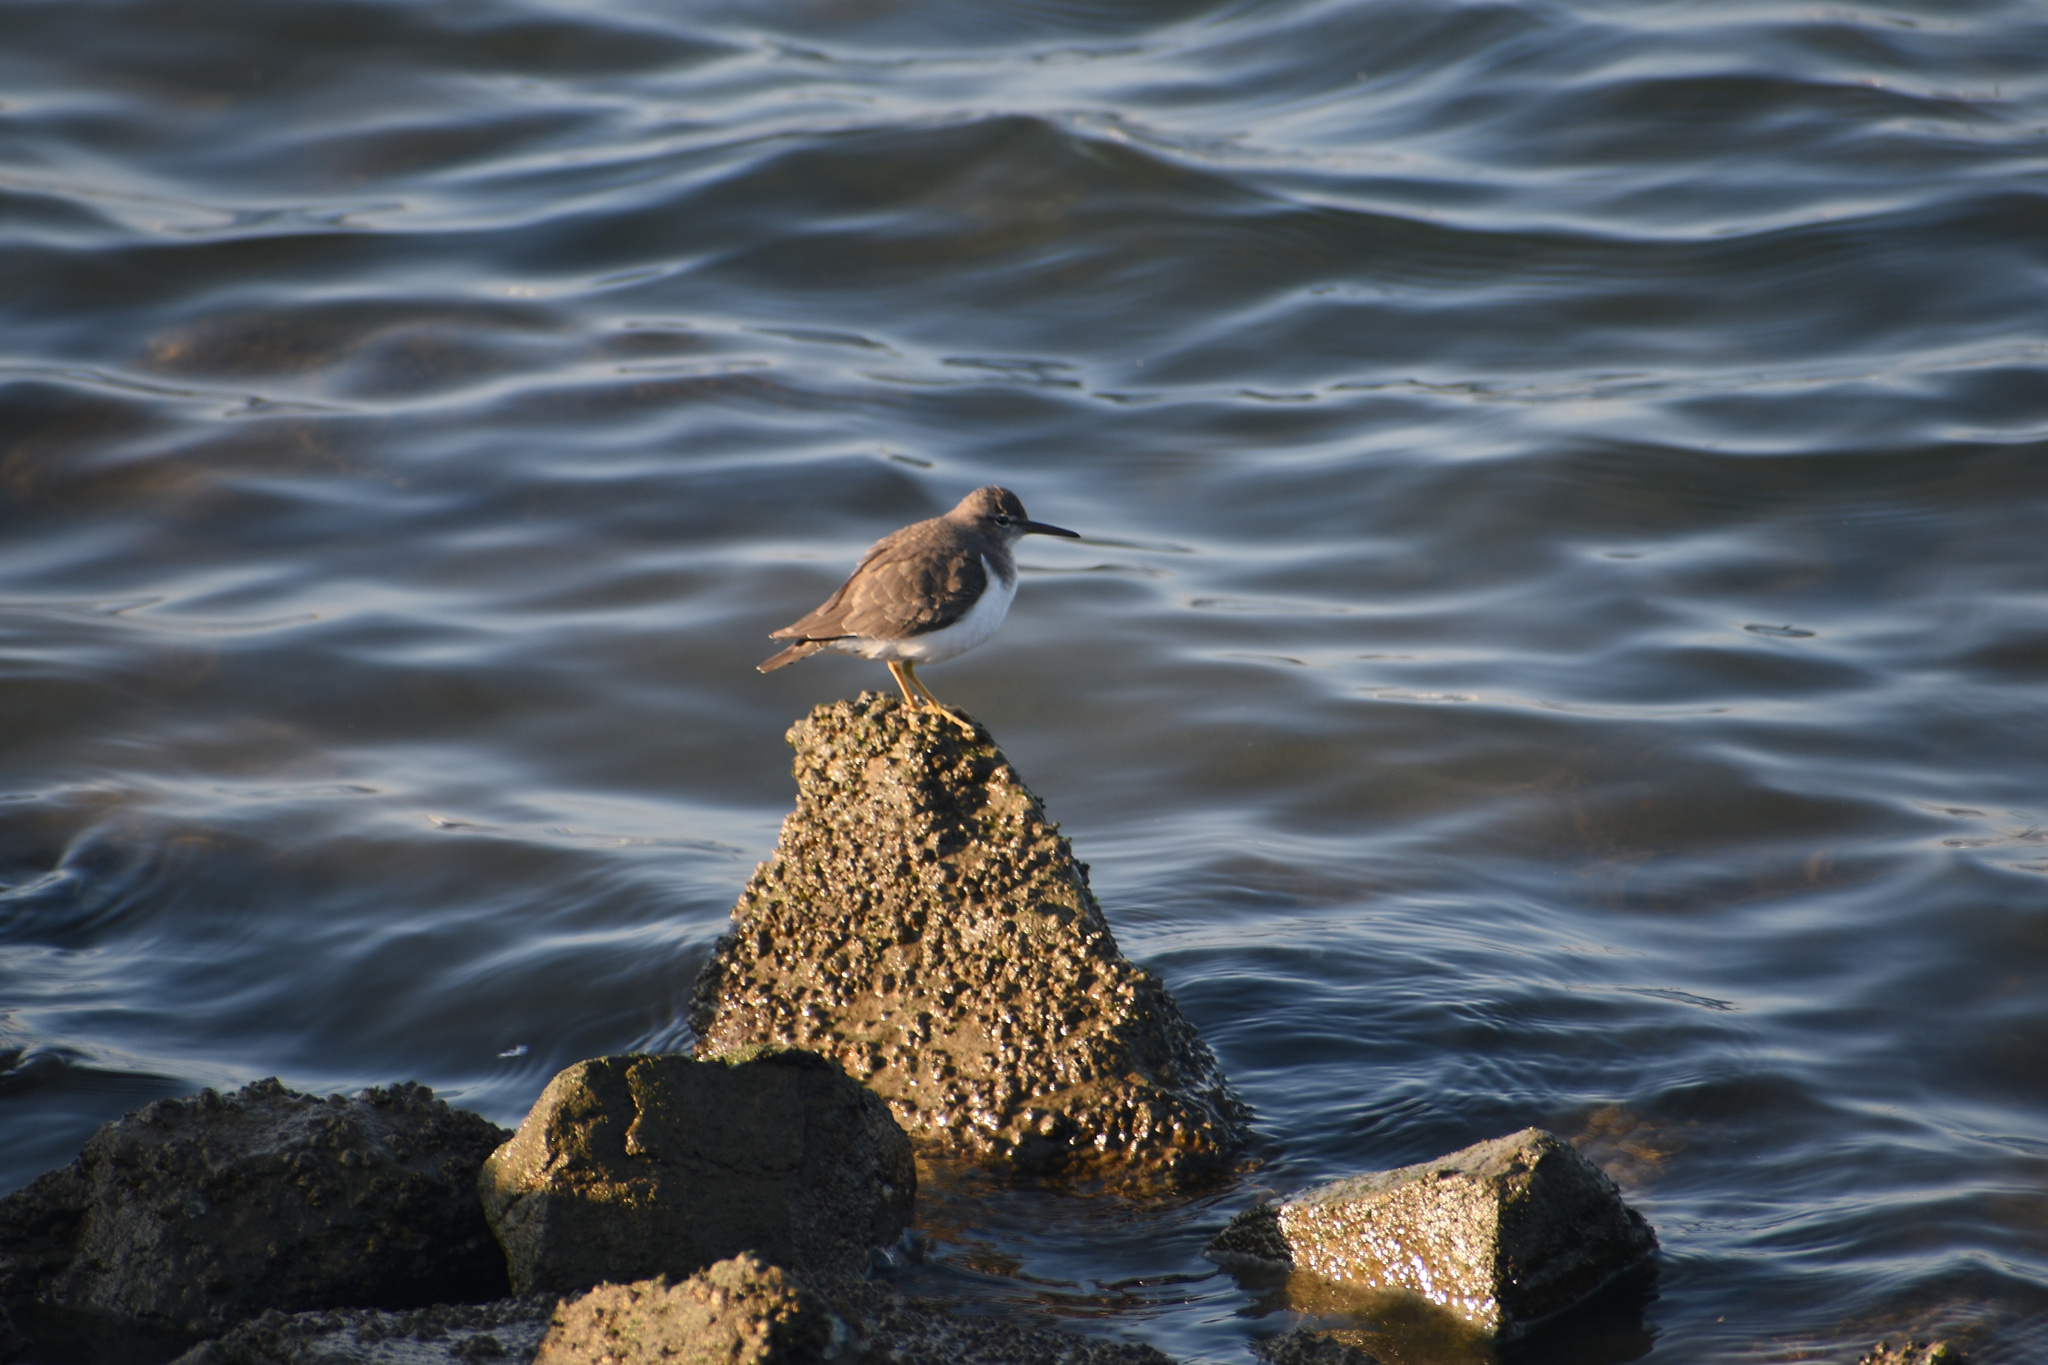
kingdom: Animalia
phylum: Chordata
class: Aves
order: Charadriiformes
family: Scolopacidae
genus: Actitis
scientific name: Actitis macularius
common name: Spotted sandpiper
